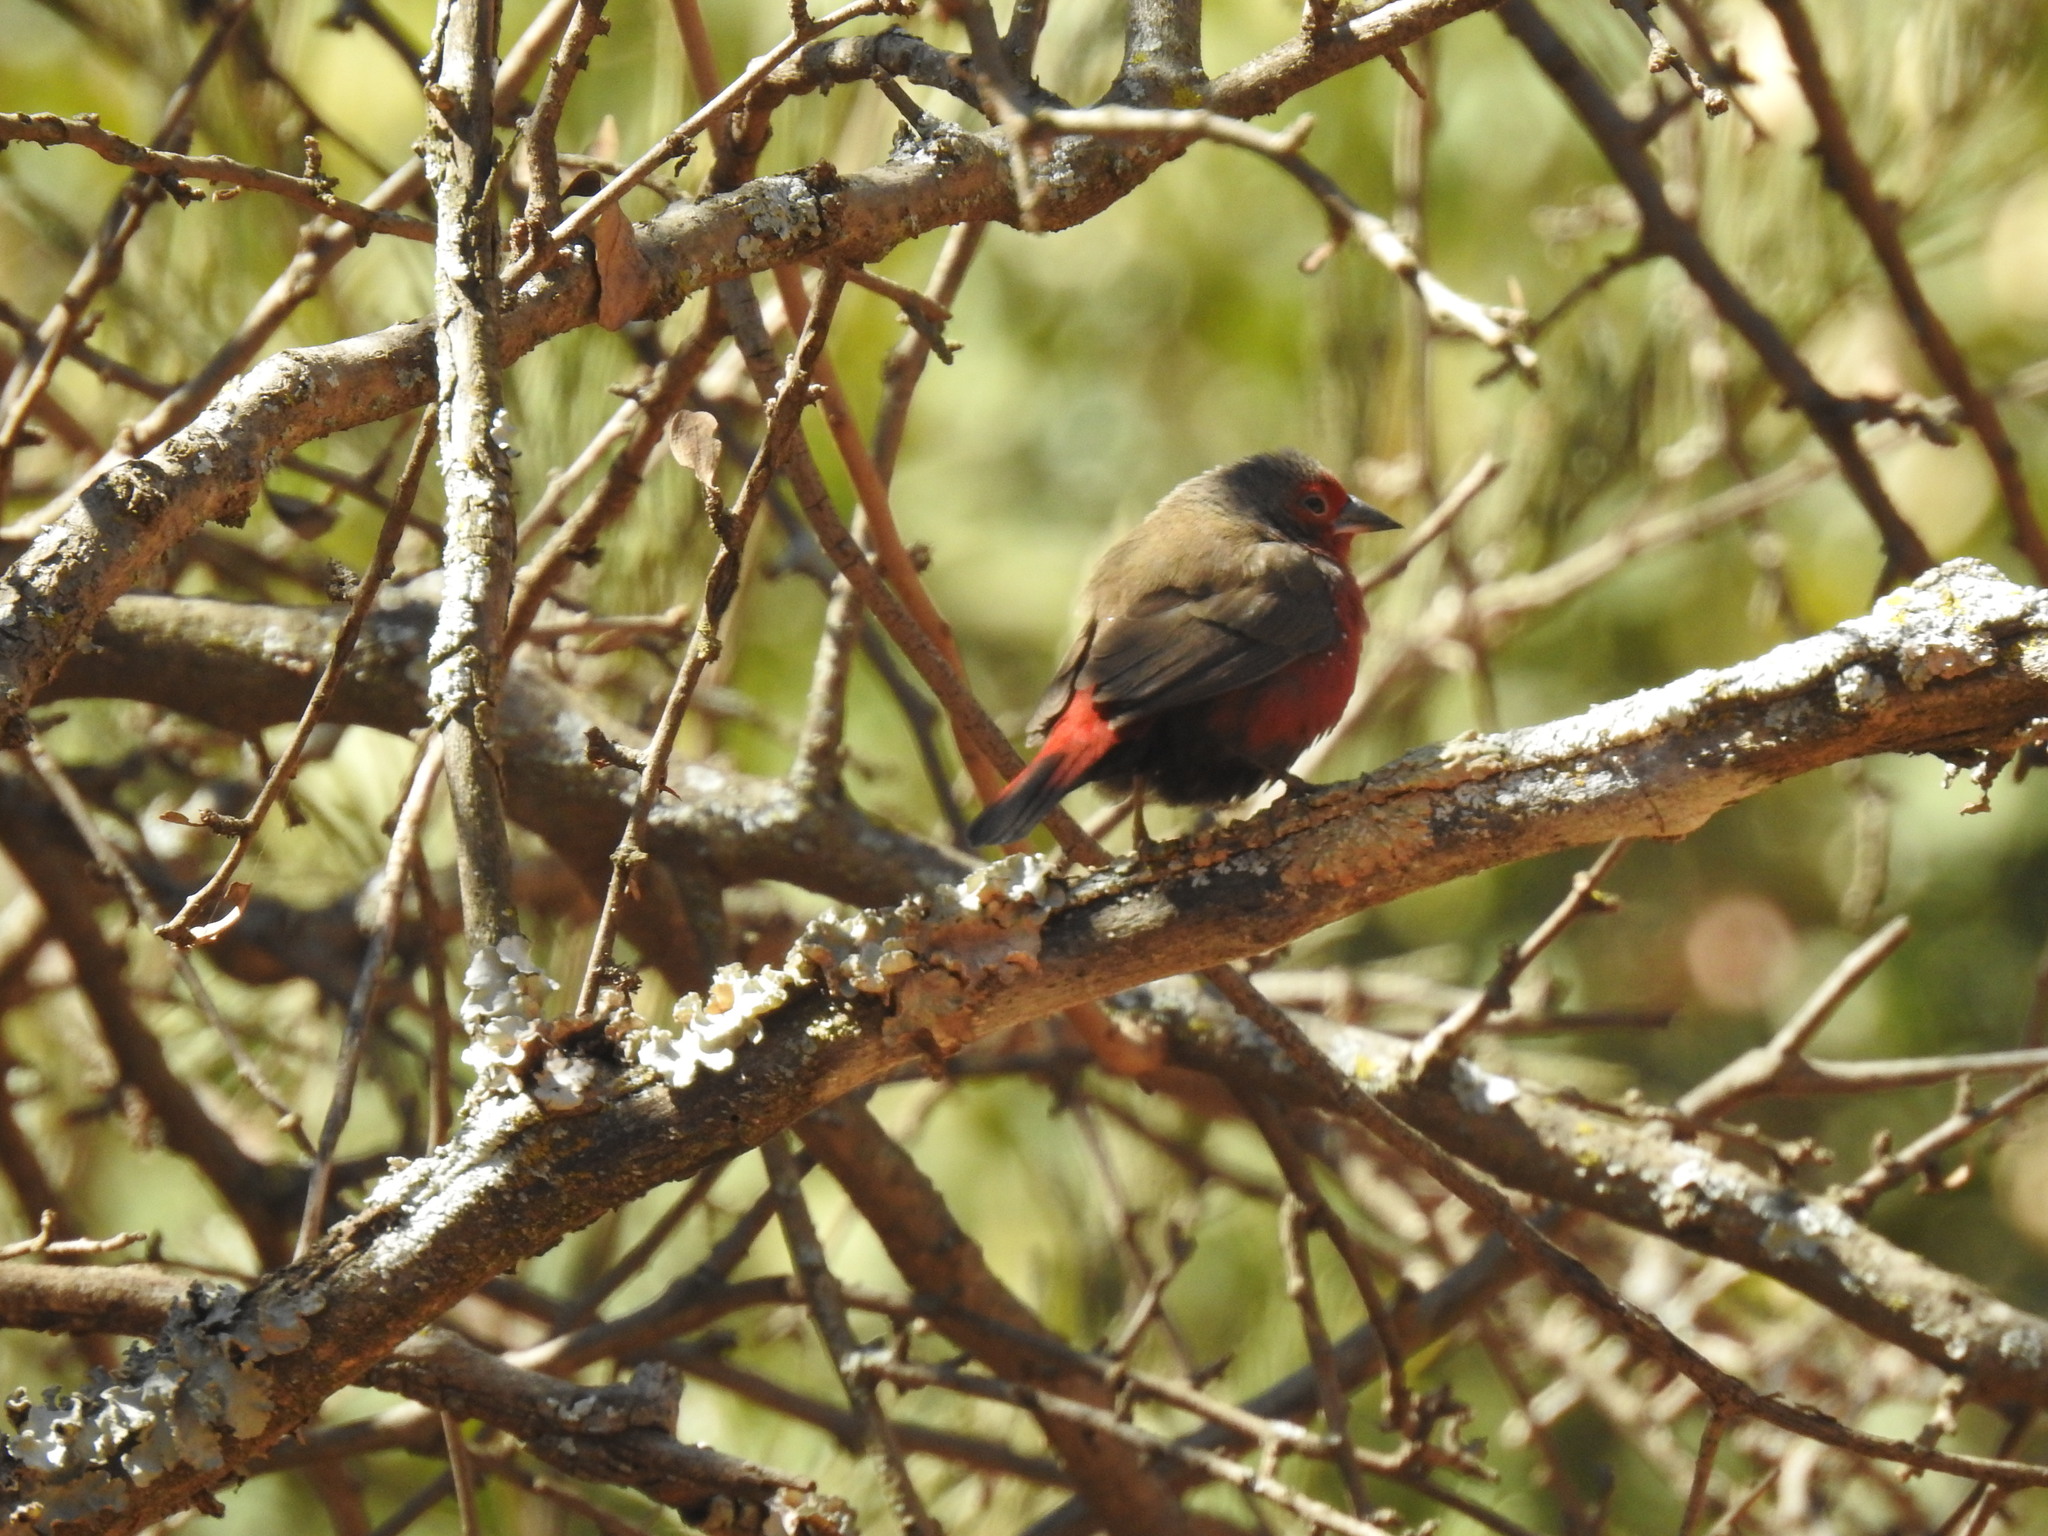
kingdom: Animalia
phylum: Chordata
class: Aves
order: Passeriformes
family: Estrildidae
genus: Lagonosticta
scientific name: Lagonosticta rubricata
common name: African firefinch
